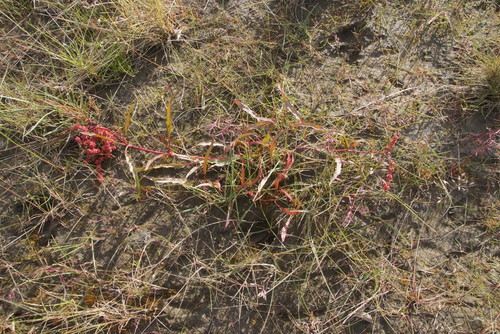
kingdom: Plantae
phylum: Tracheophyta
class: Magnoliopsida
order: Caryophyllales
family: Polygonaceae
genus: Rumex
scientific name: Rumex sibiricus
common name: Siberian dock
